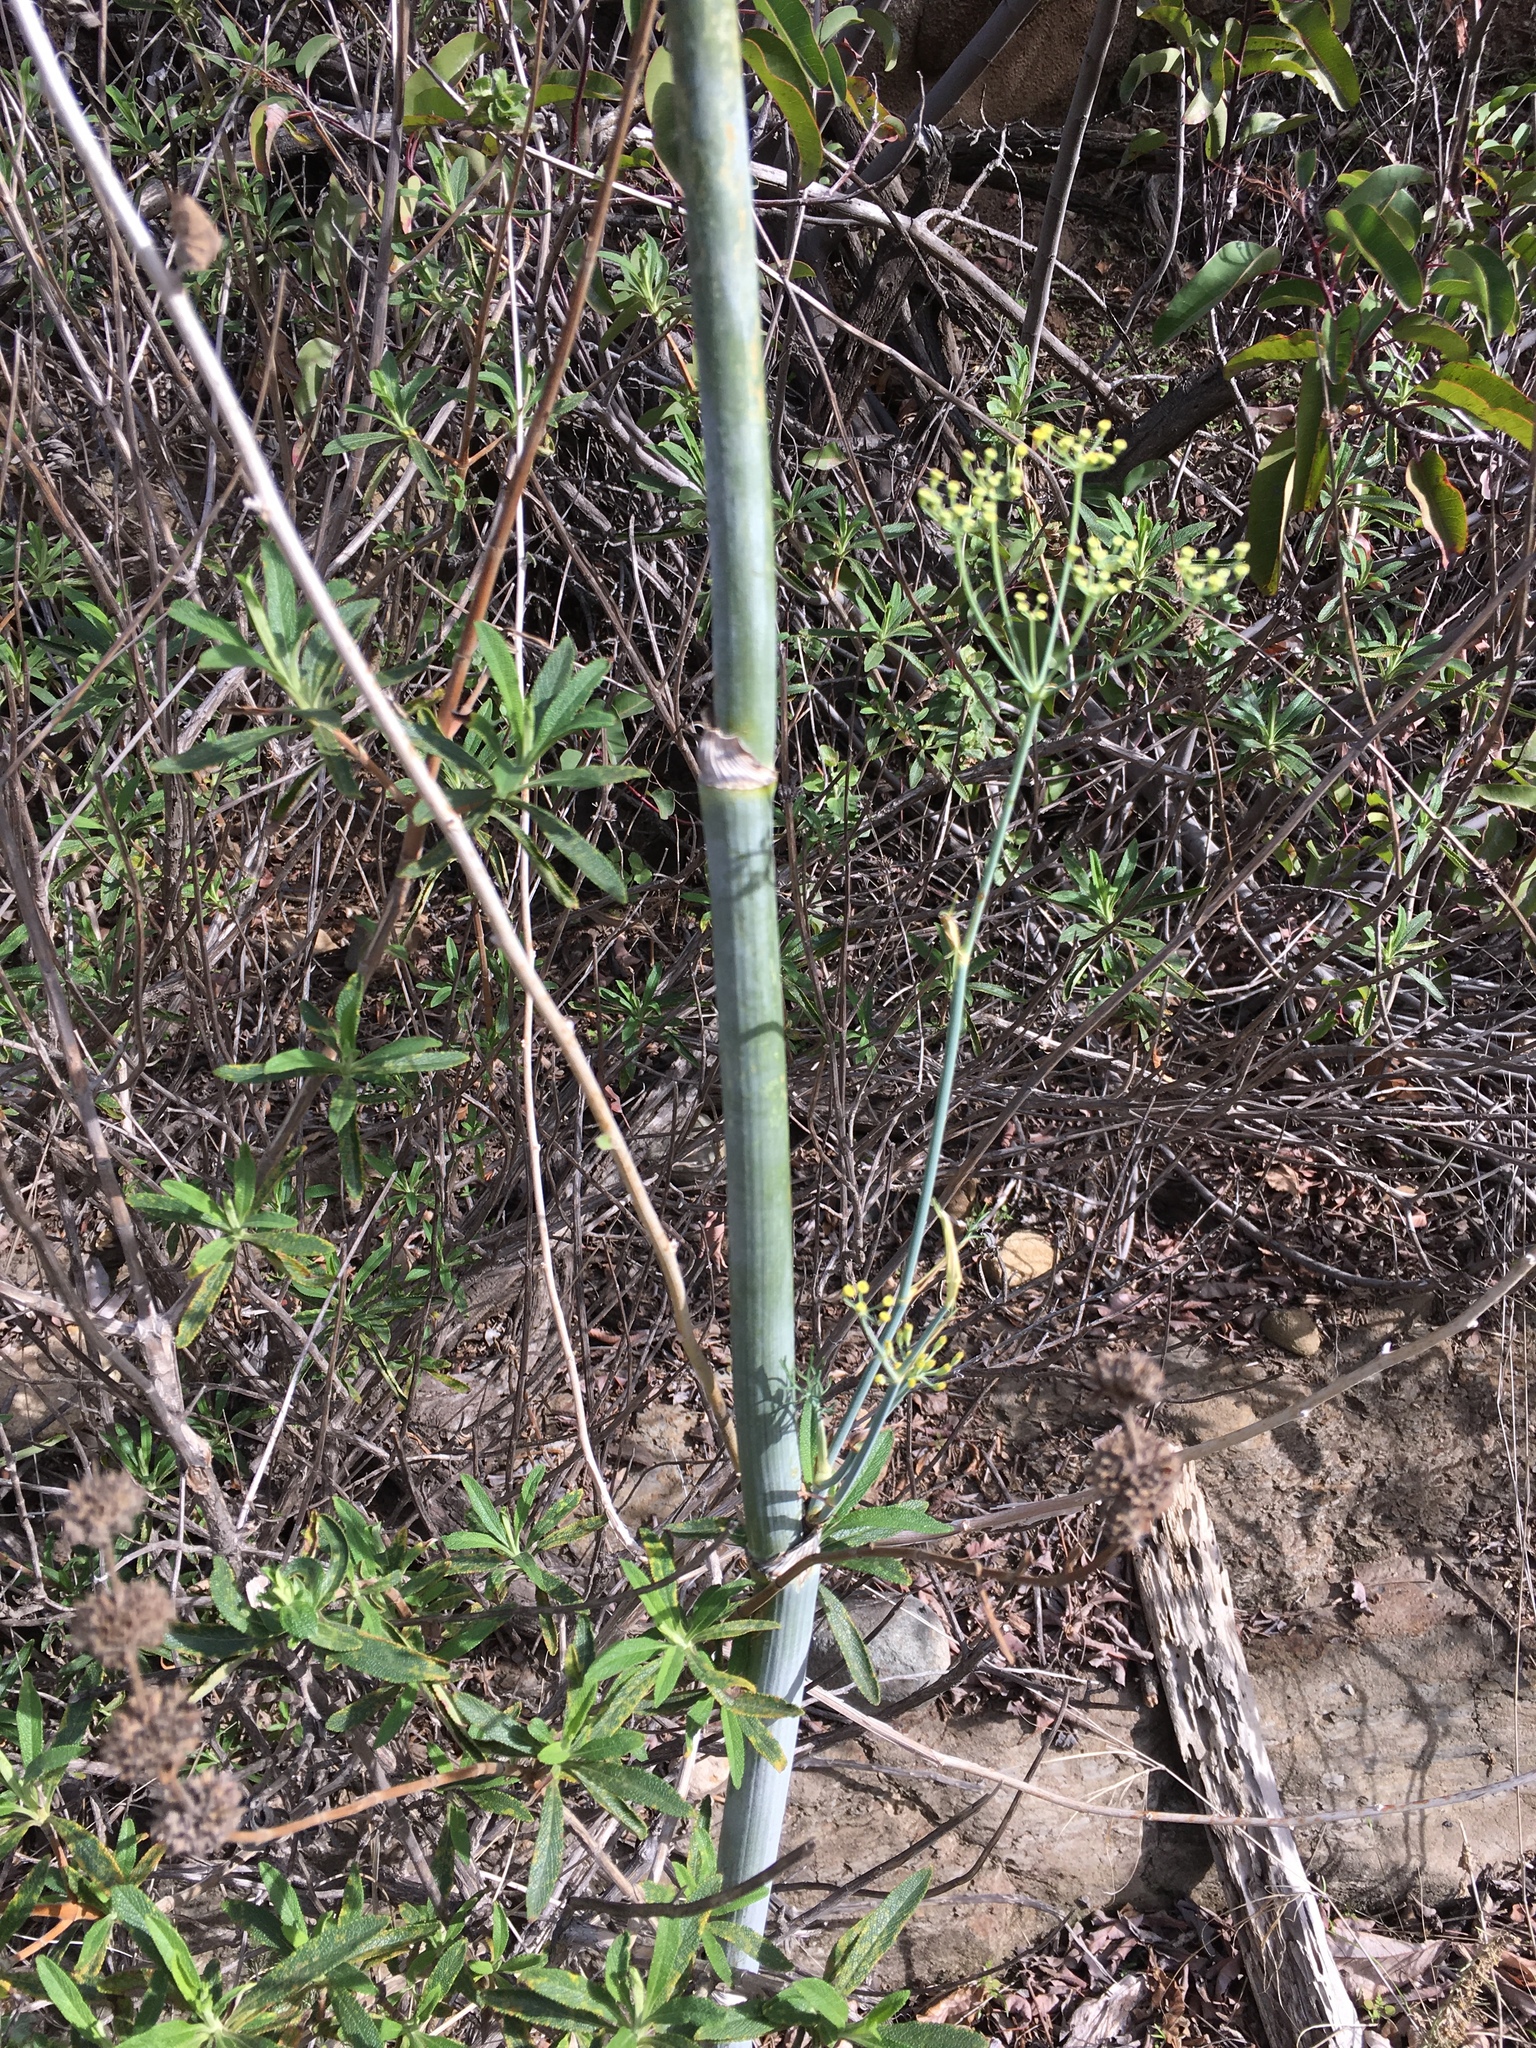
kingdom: Plantae
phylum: Tracheophyta
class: Magnoliopsida
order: Apiales
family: Apiaceae
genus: Foeniculum
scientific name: Foeniculum vulgare
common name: Fennel
